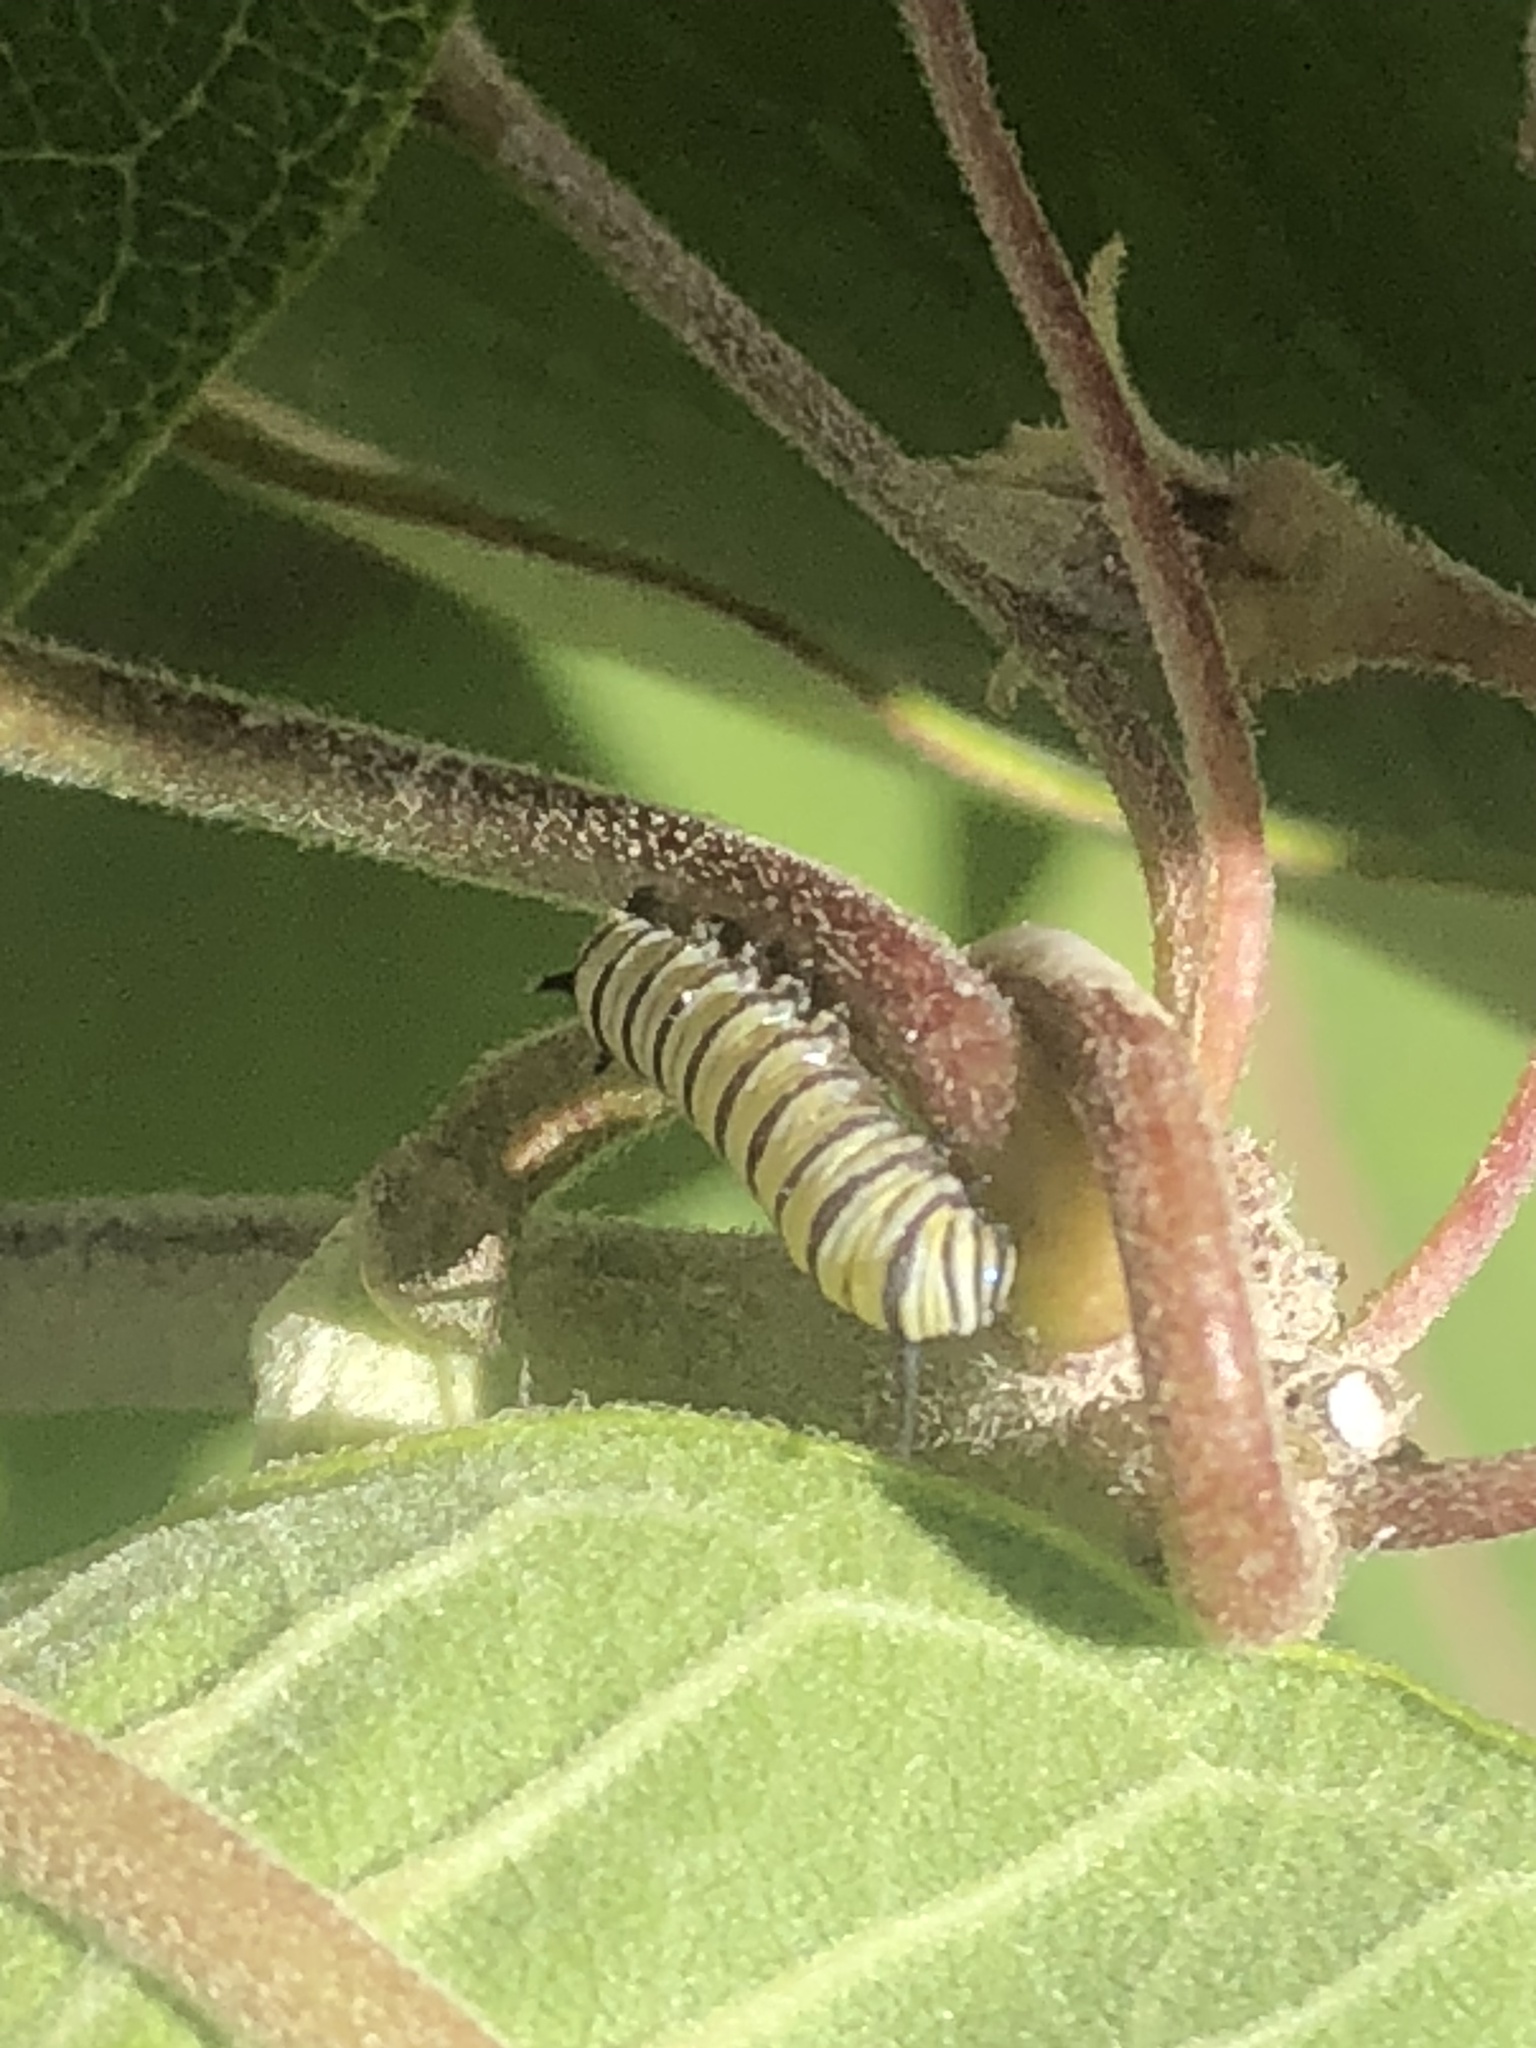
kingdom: Animalia
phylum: Arthropoda
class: Insecta
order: Lepidoptera
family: Nymphalidae
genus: Danaus
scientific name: Danaus plexippus
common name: Monarch
